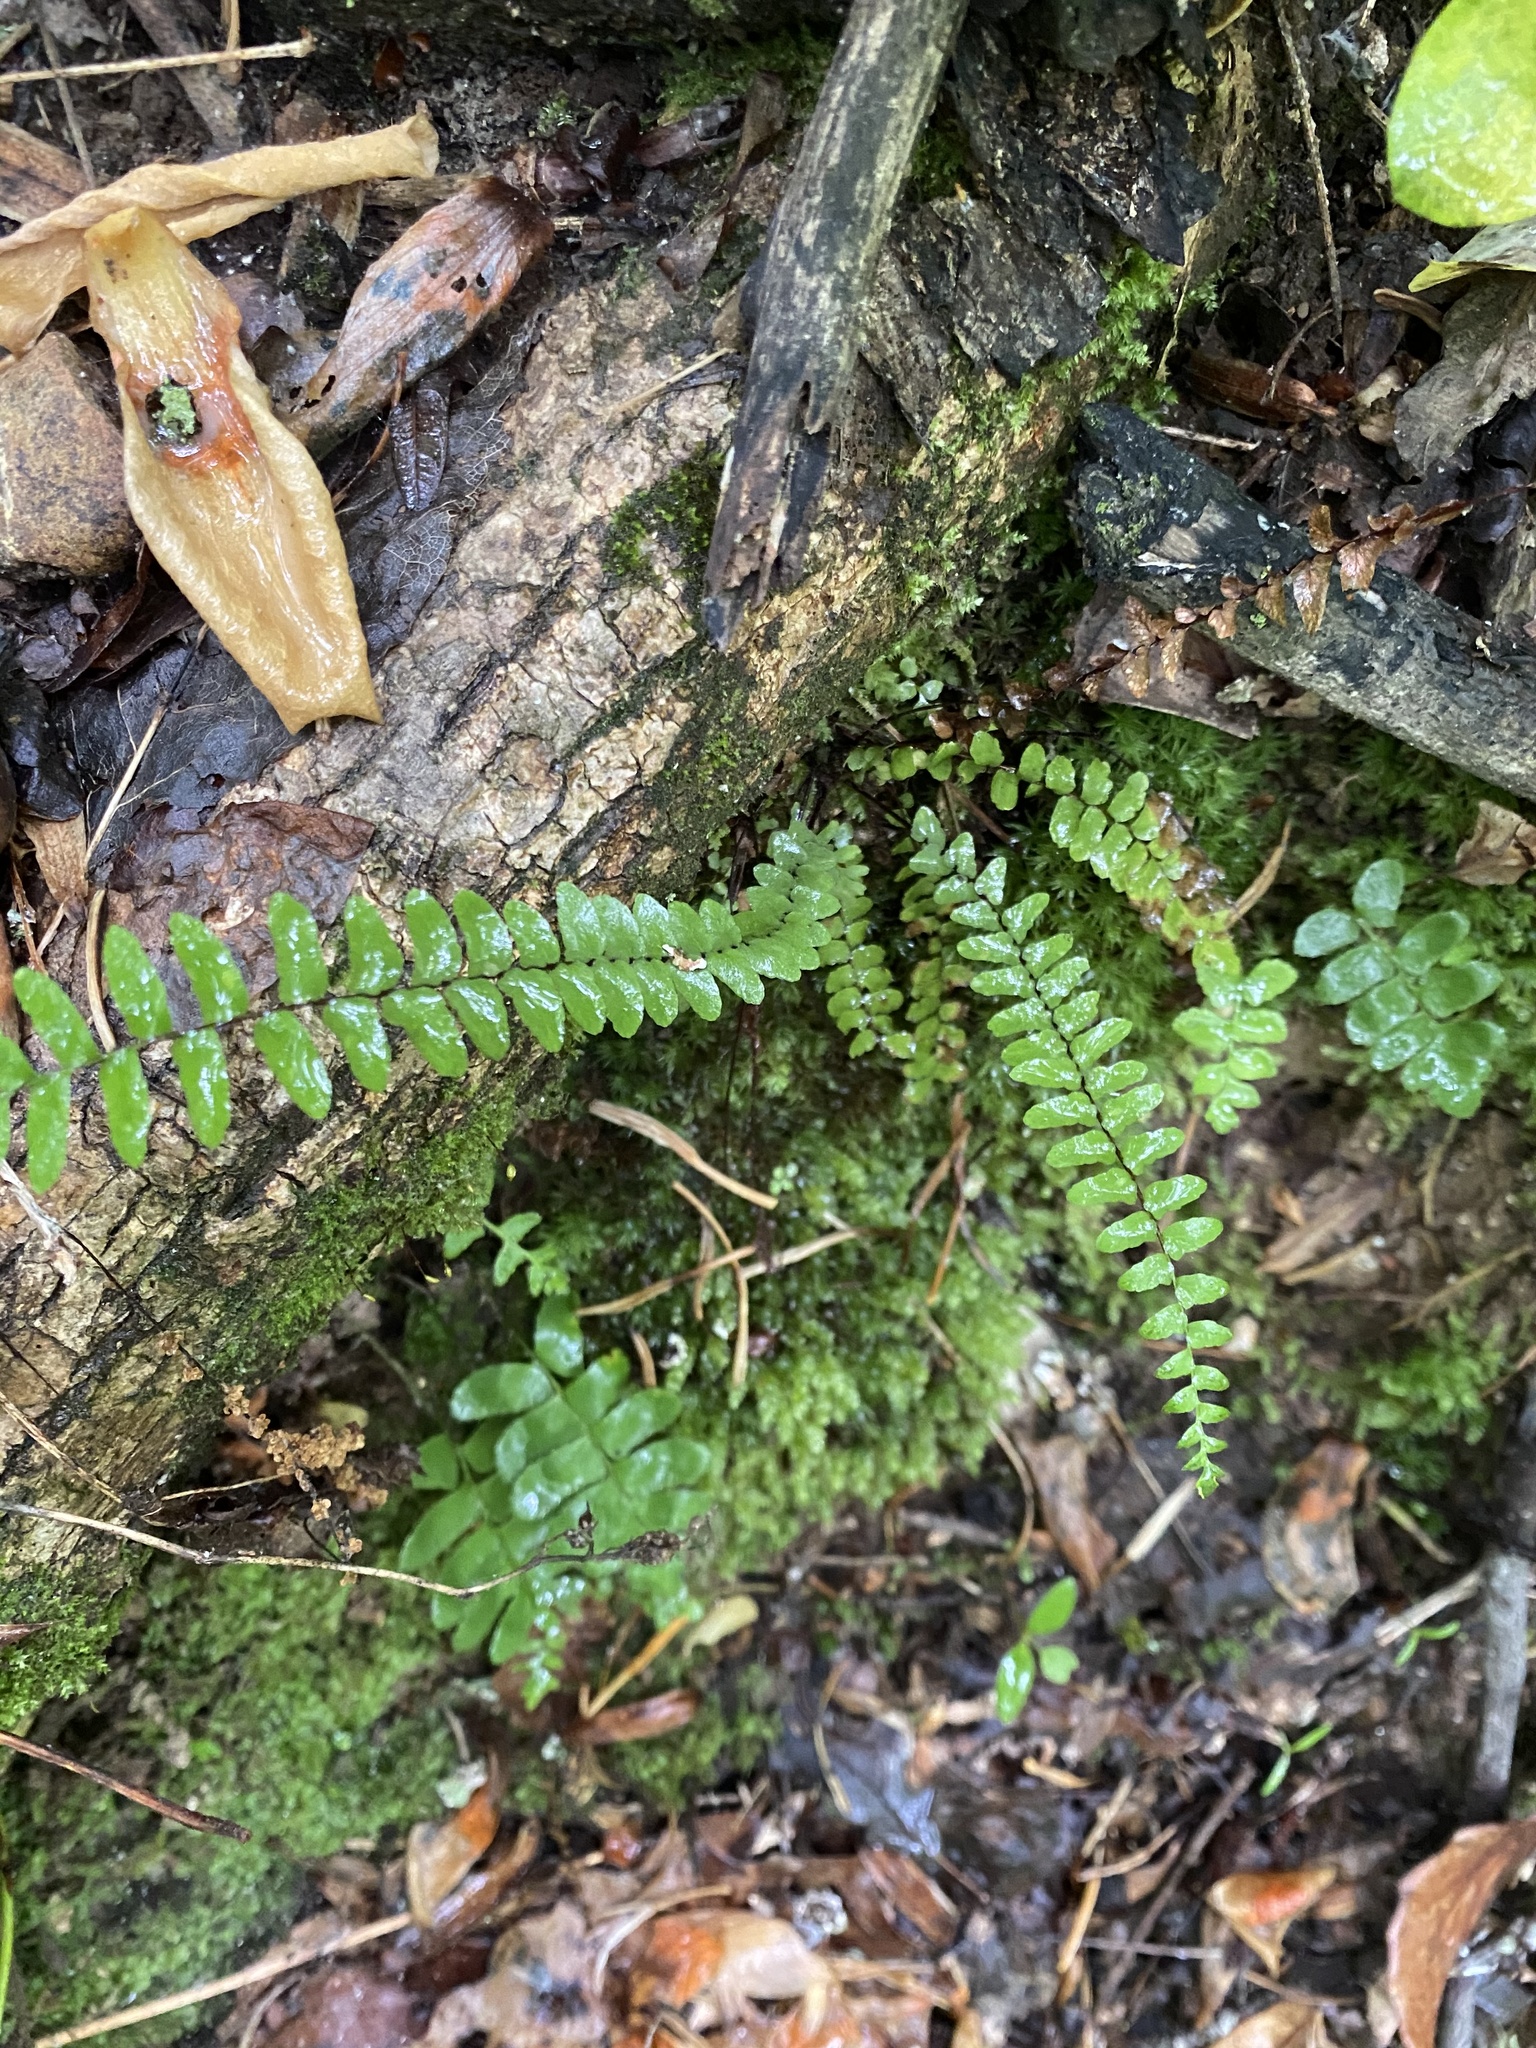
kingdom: Plantae
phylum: Tracheophyta
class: Polypodiopsida
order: Polypodiales
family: Aspleniaceae
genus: Asplenium
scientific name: Asplenium platyneuron
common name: Ebony spleenwort
